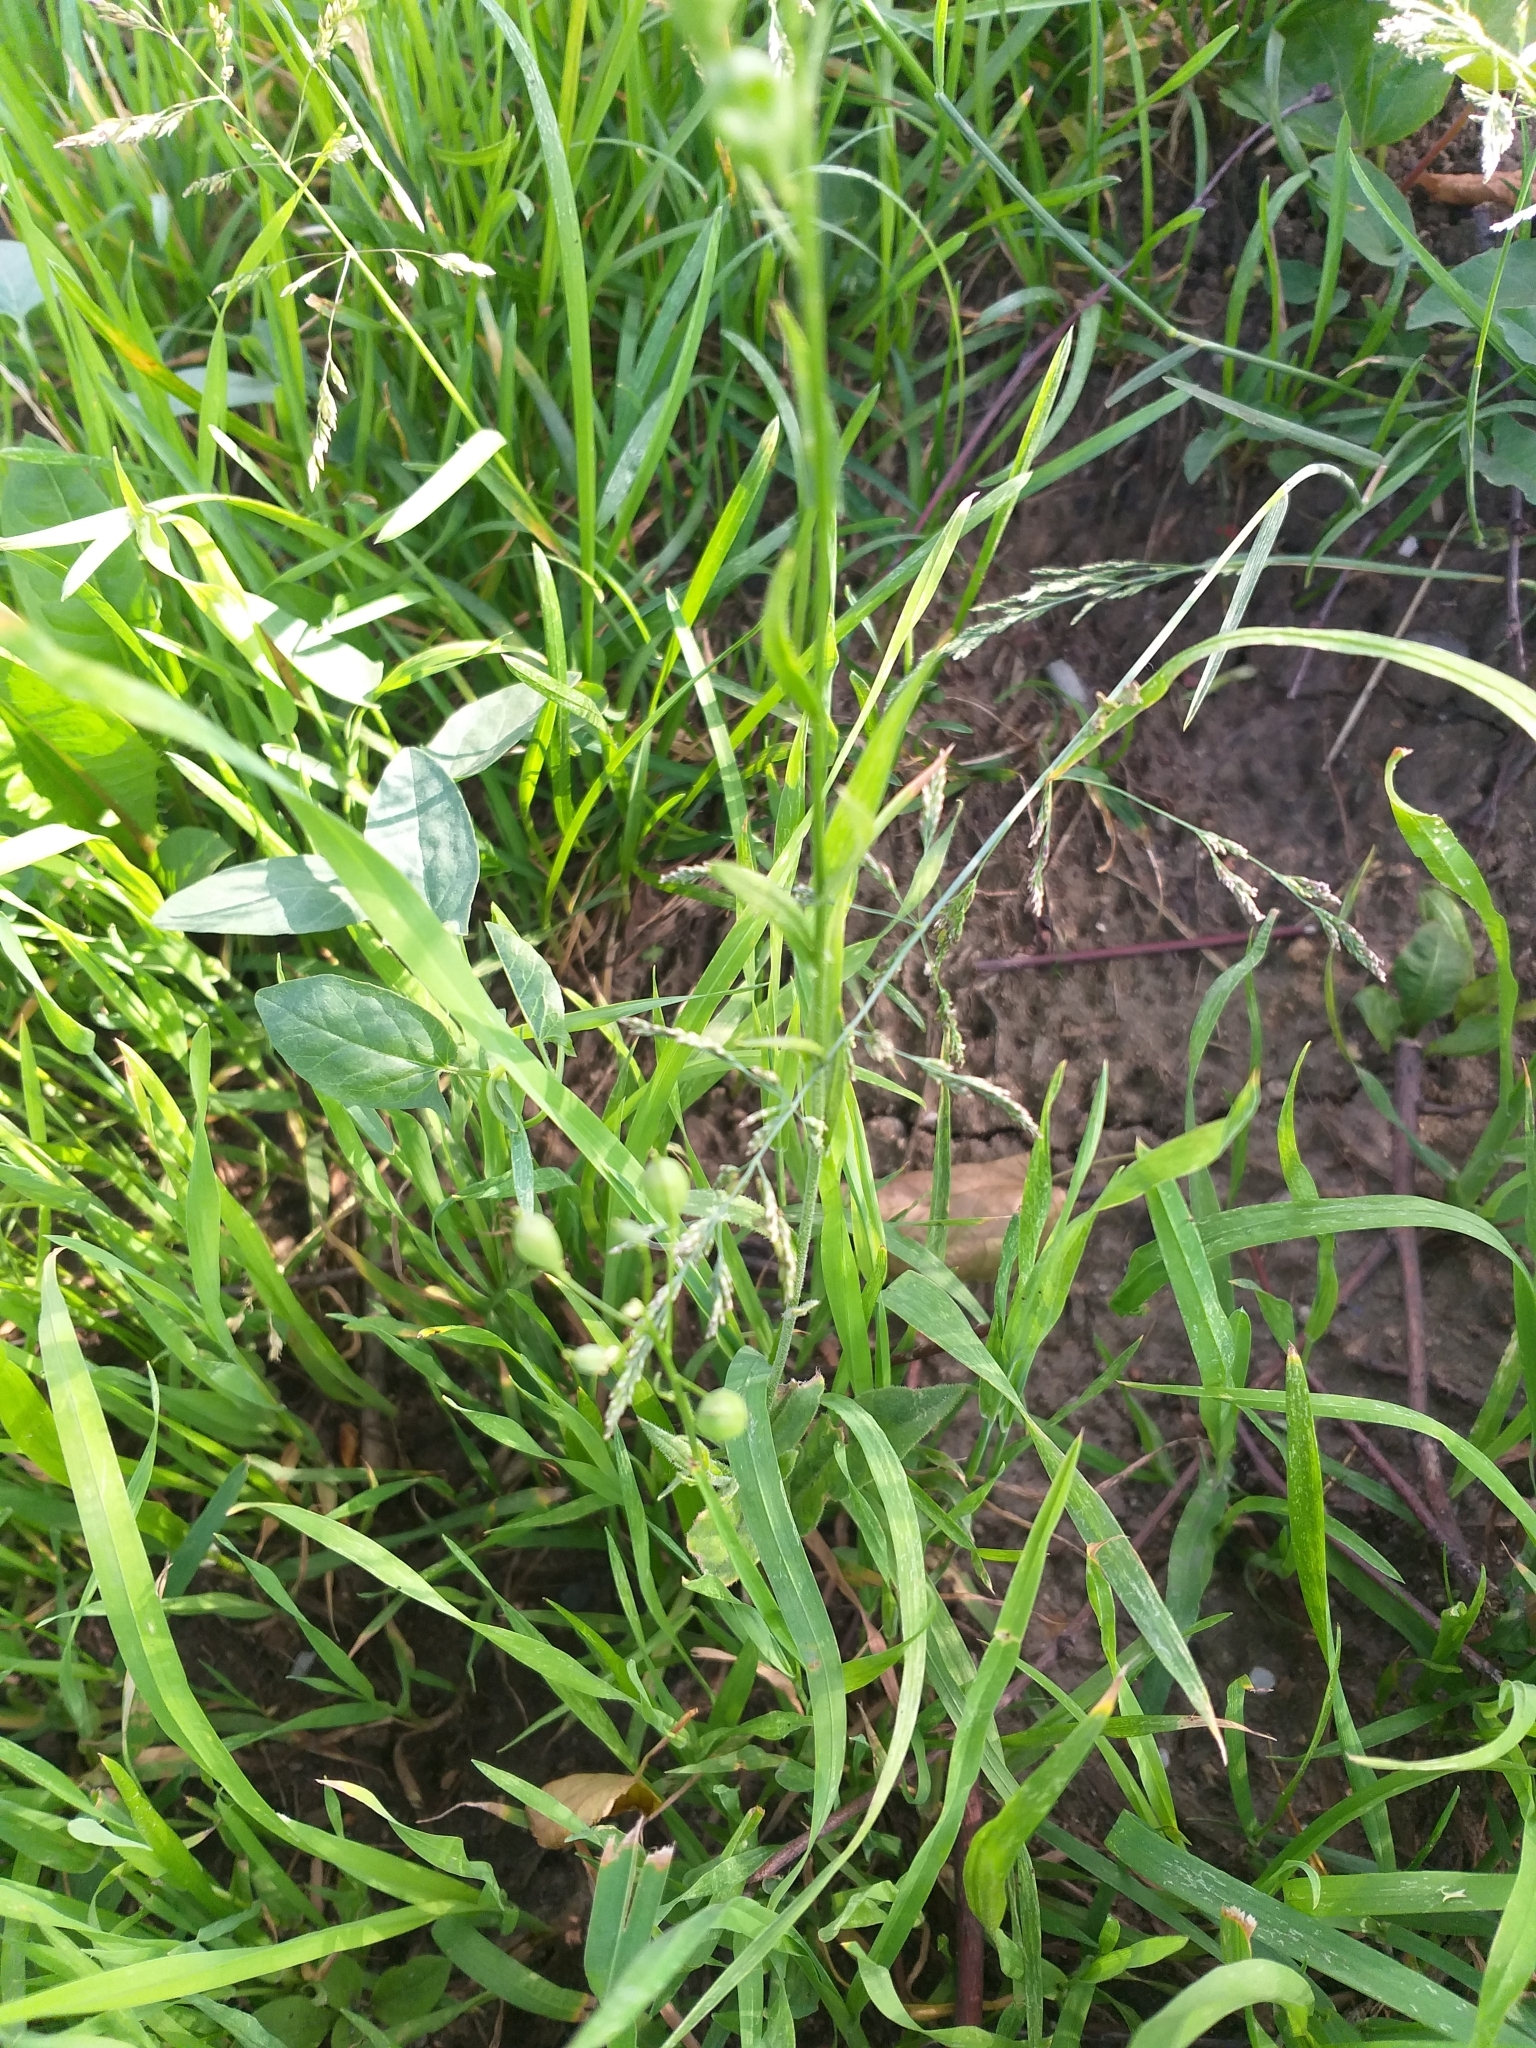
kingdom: Plantae
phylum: Tracheophyta
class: Magnoliopsida
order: Brassicales
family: Brassicaceae
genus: Camelina
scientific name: Camelina microcarpa
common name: Lesser gold-of-pleasure
